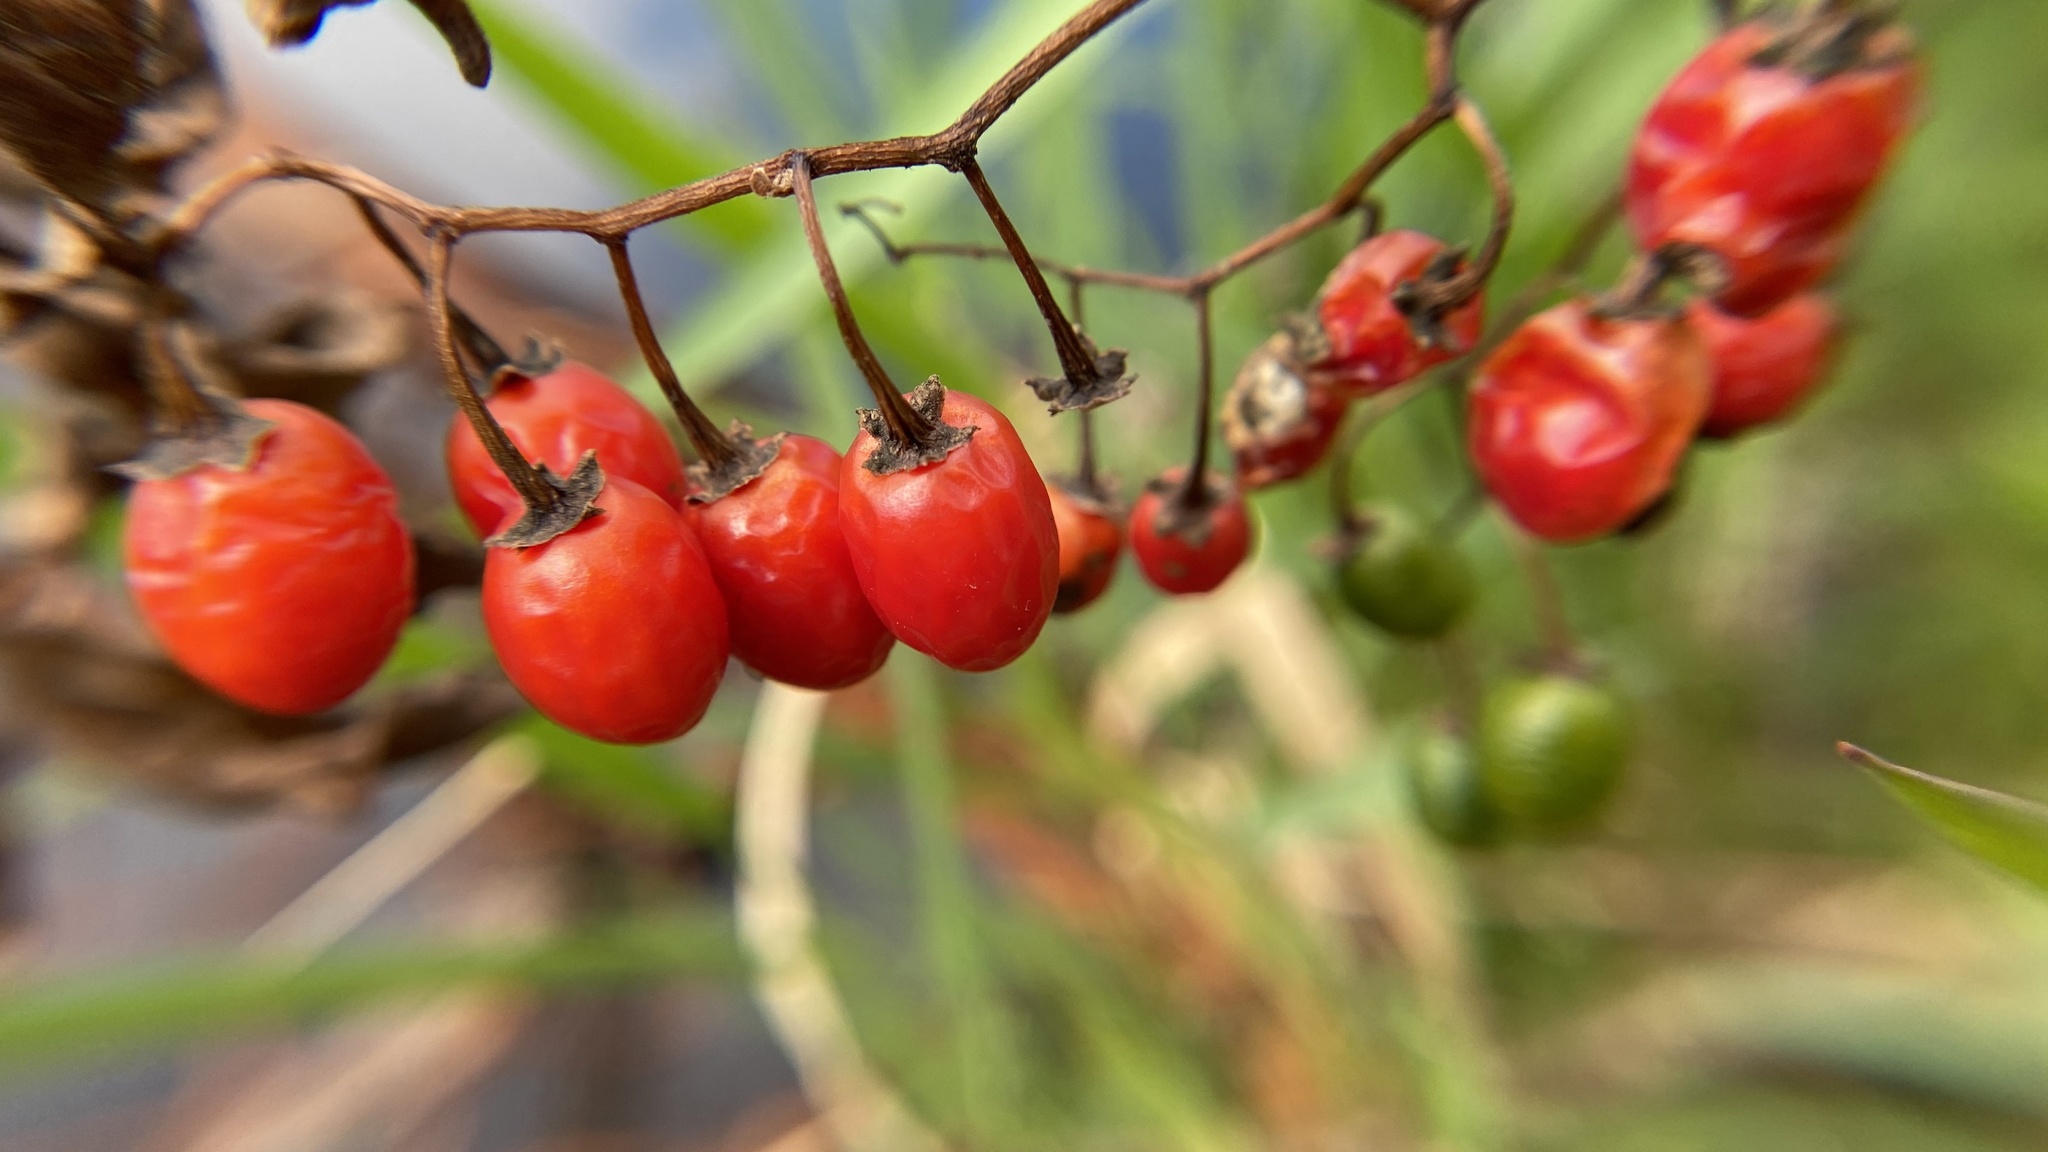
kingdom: Plantae
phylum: Tracheophyta
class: Magnoliopsida
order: Solanales
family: Solanaceae
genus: Solanum
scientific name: Solanum dulcamara
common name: Climbing nightshade
